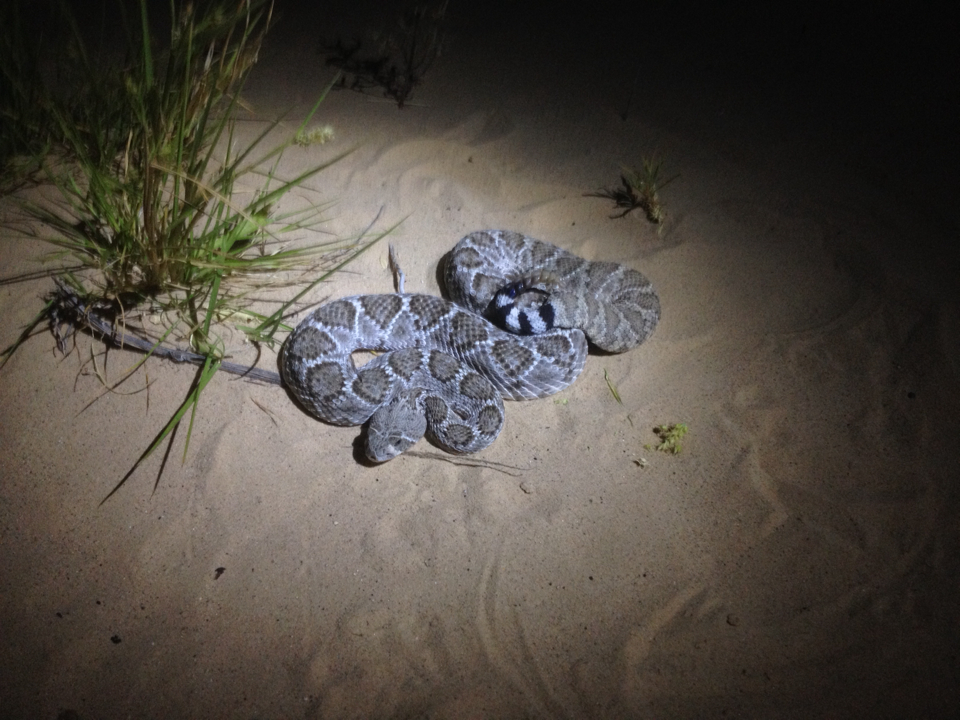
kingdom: Animalia
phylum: Chordata
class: Squamata
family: Viperidae
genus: Crotalus
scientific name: Crotalus atrox
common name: Western diamond-backed rattlesnake
